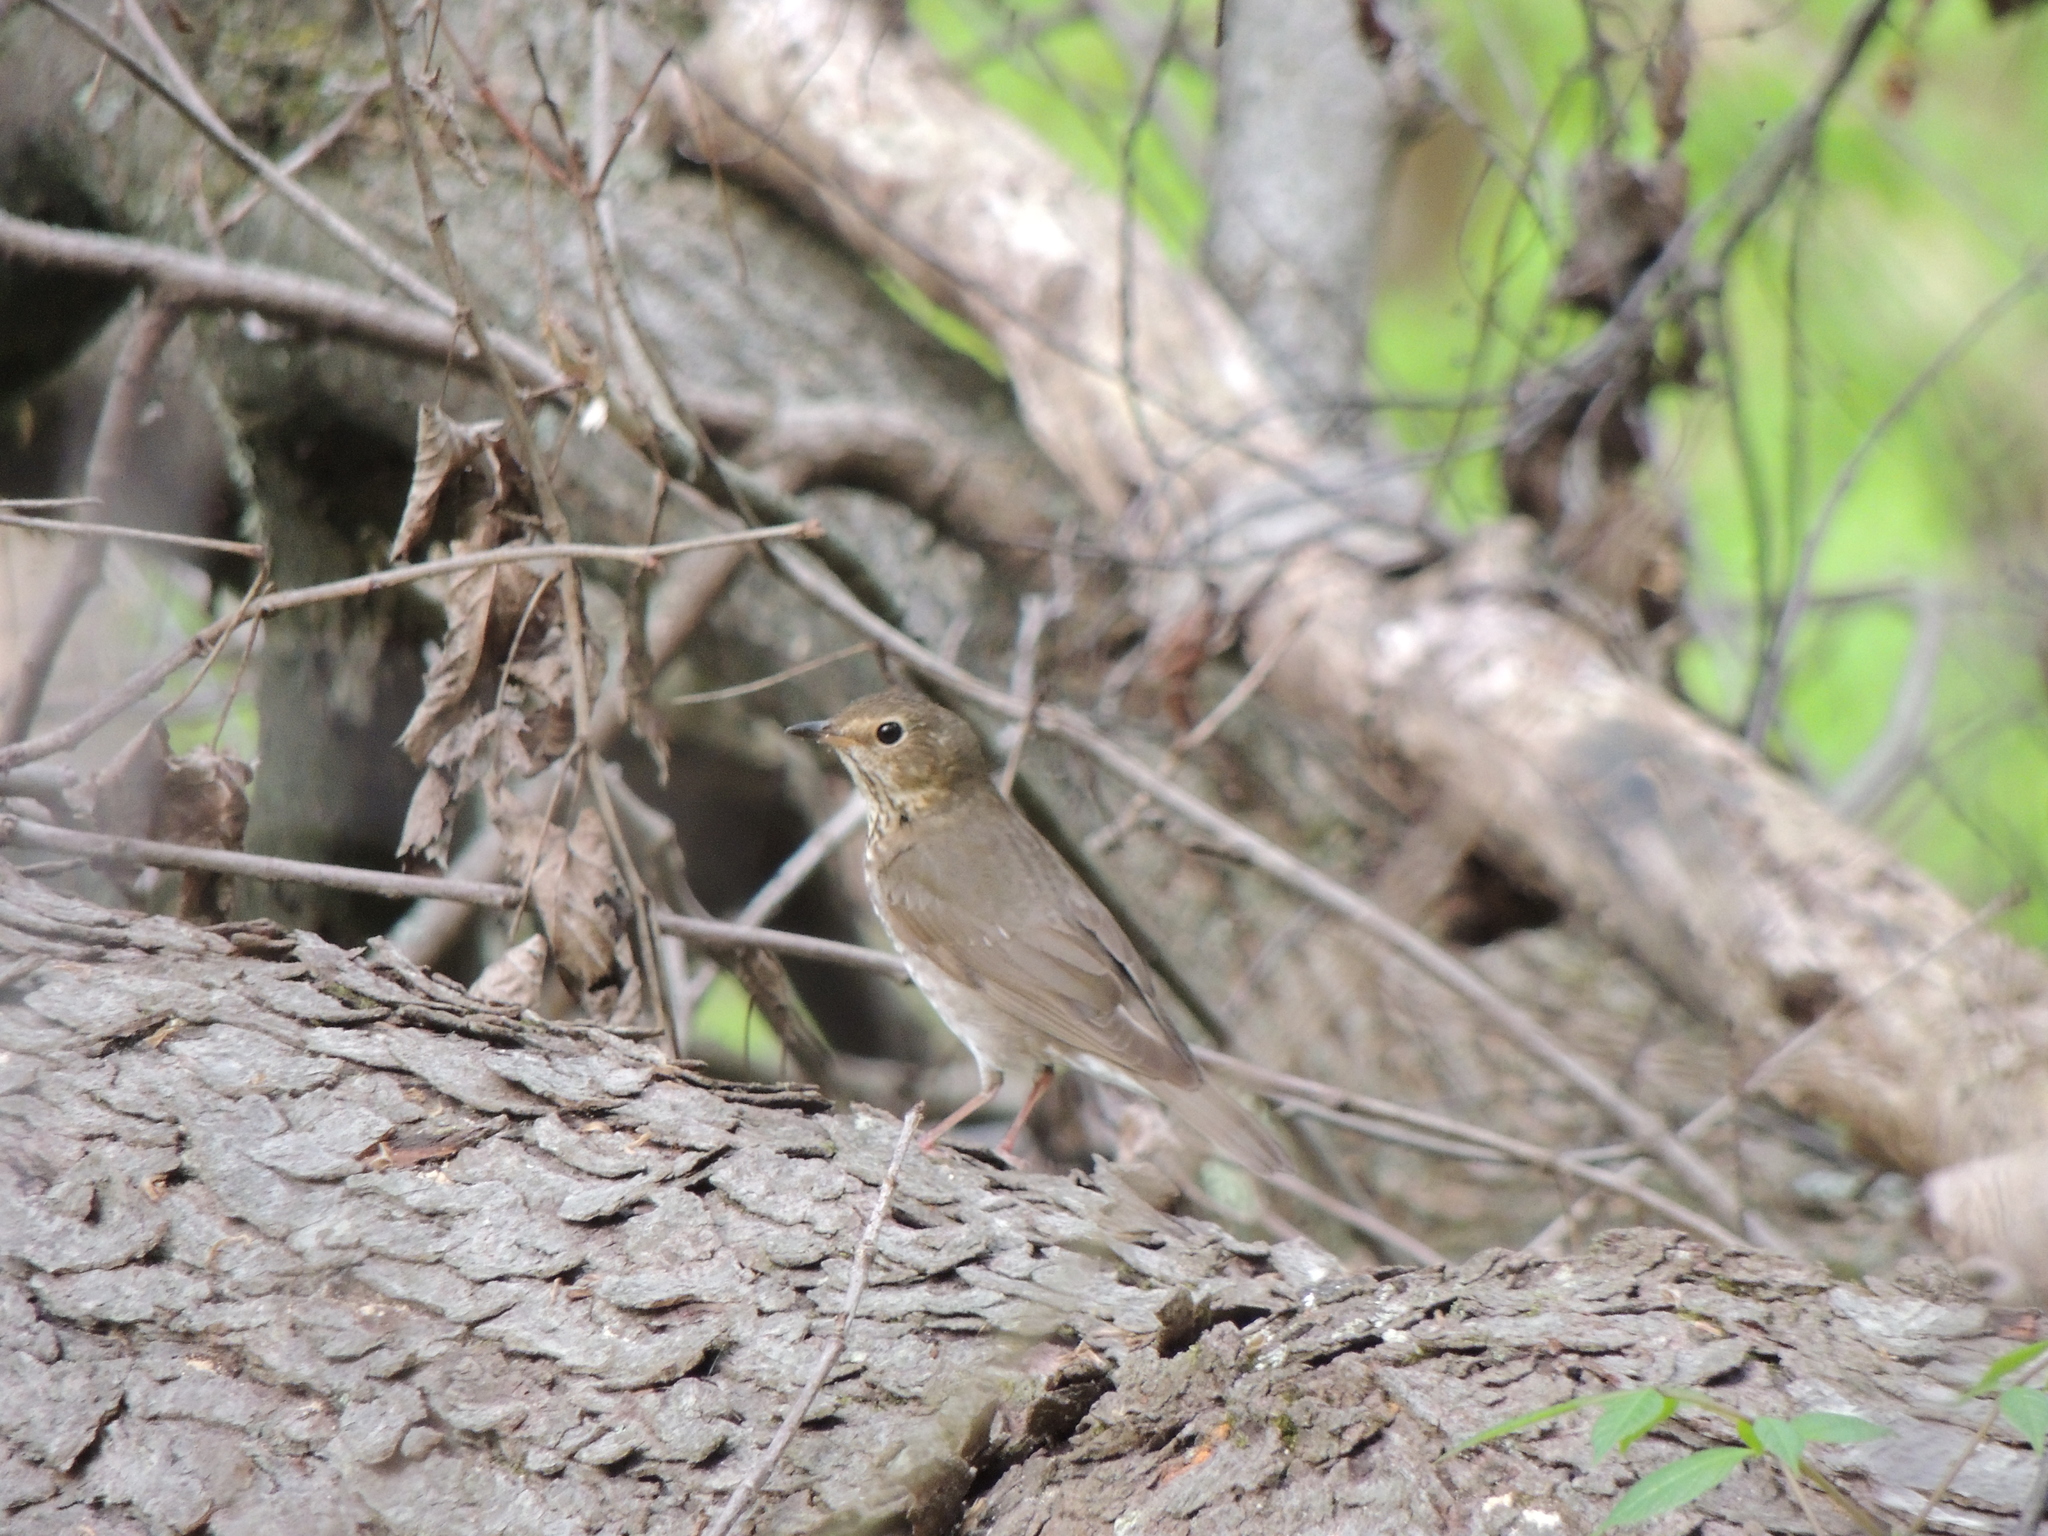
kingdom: Animalia
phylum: Chordata
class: Aves
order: Passeriformes
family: Turdidae
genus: Catharus
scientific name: Catharus ustulatus
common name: Swainson's thrush
